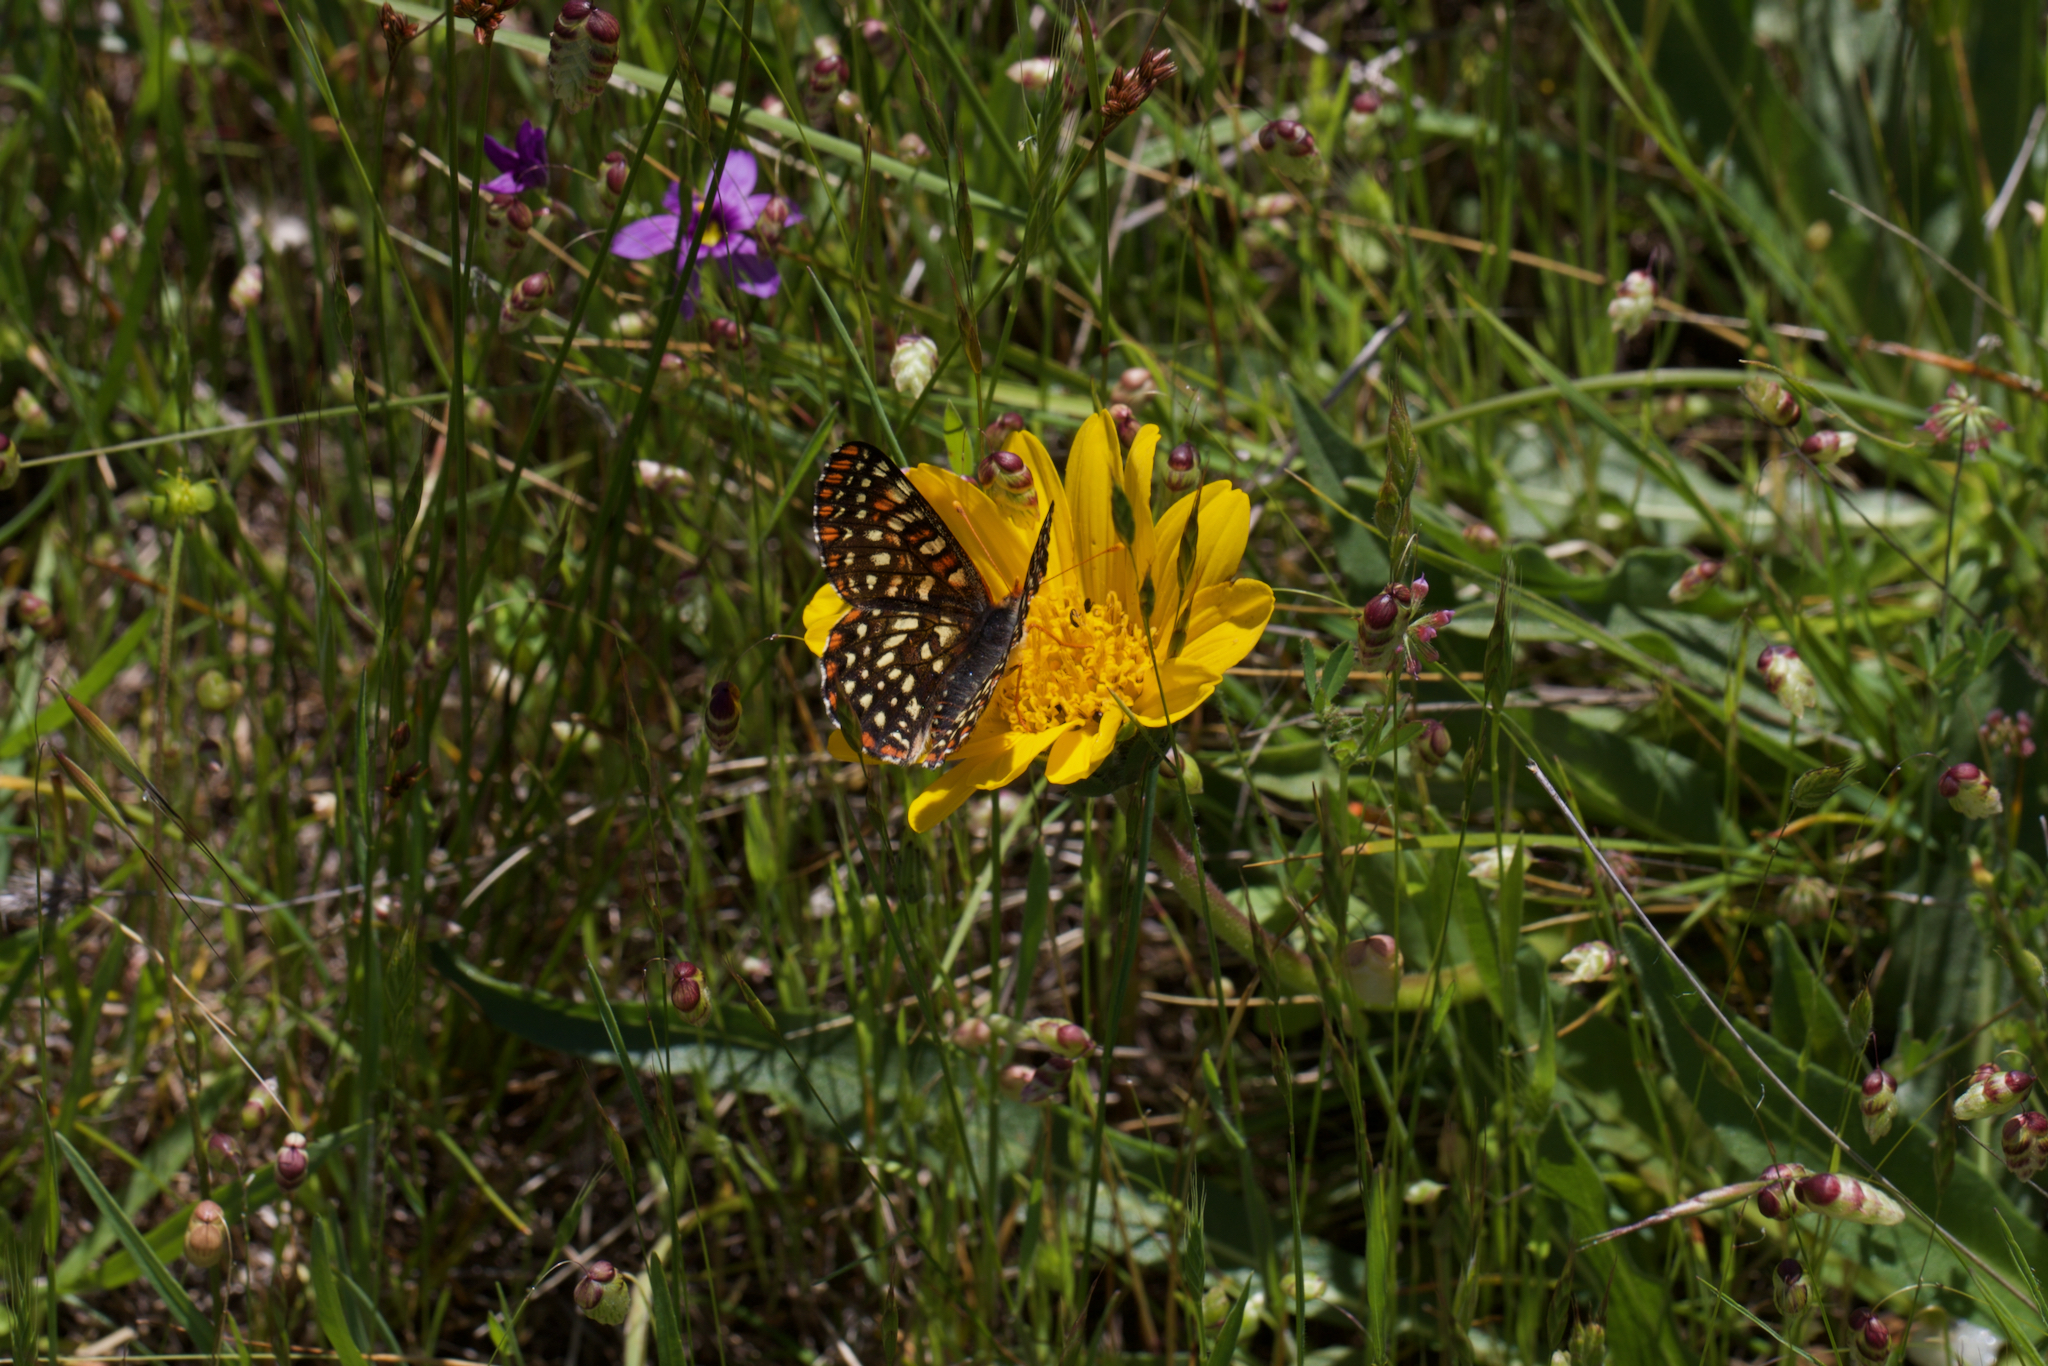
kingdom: Plantae
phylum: Tracheophyta
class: Magnoliopsida
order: Asterales
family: Asteraceae
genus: Wyethia
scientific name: Wyethia angustifolia
